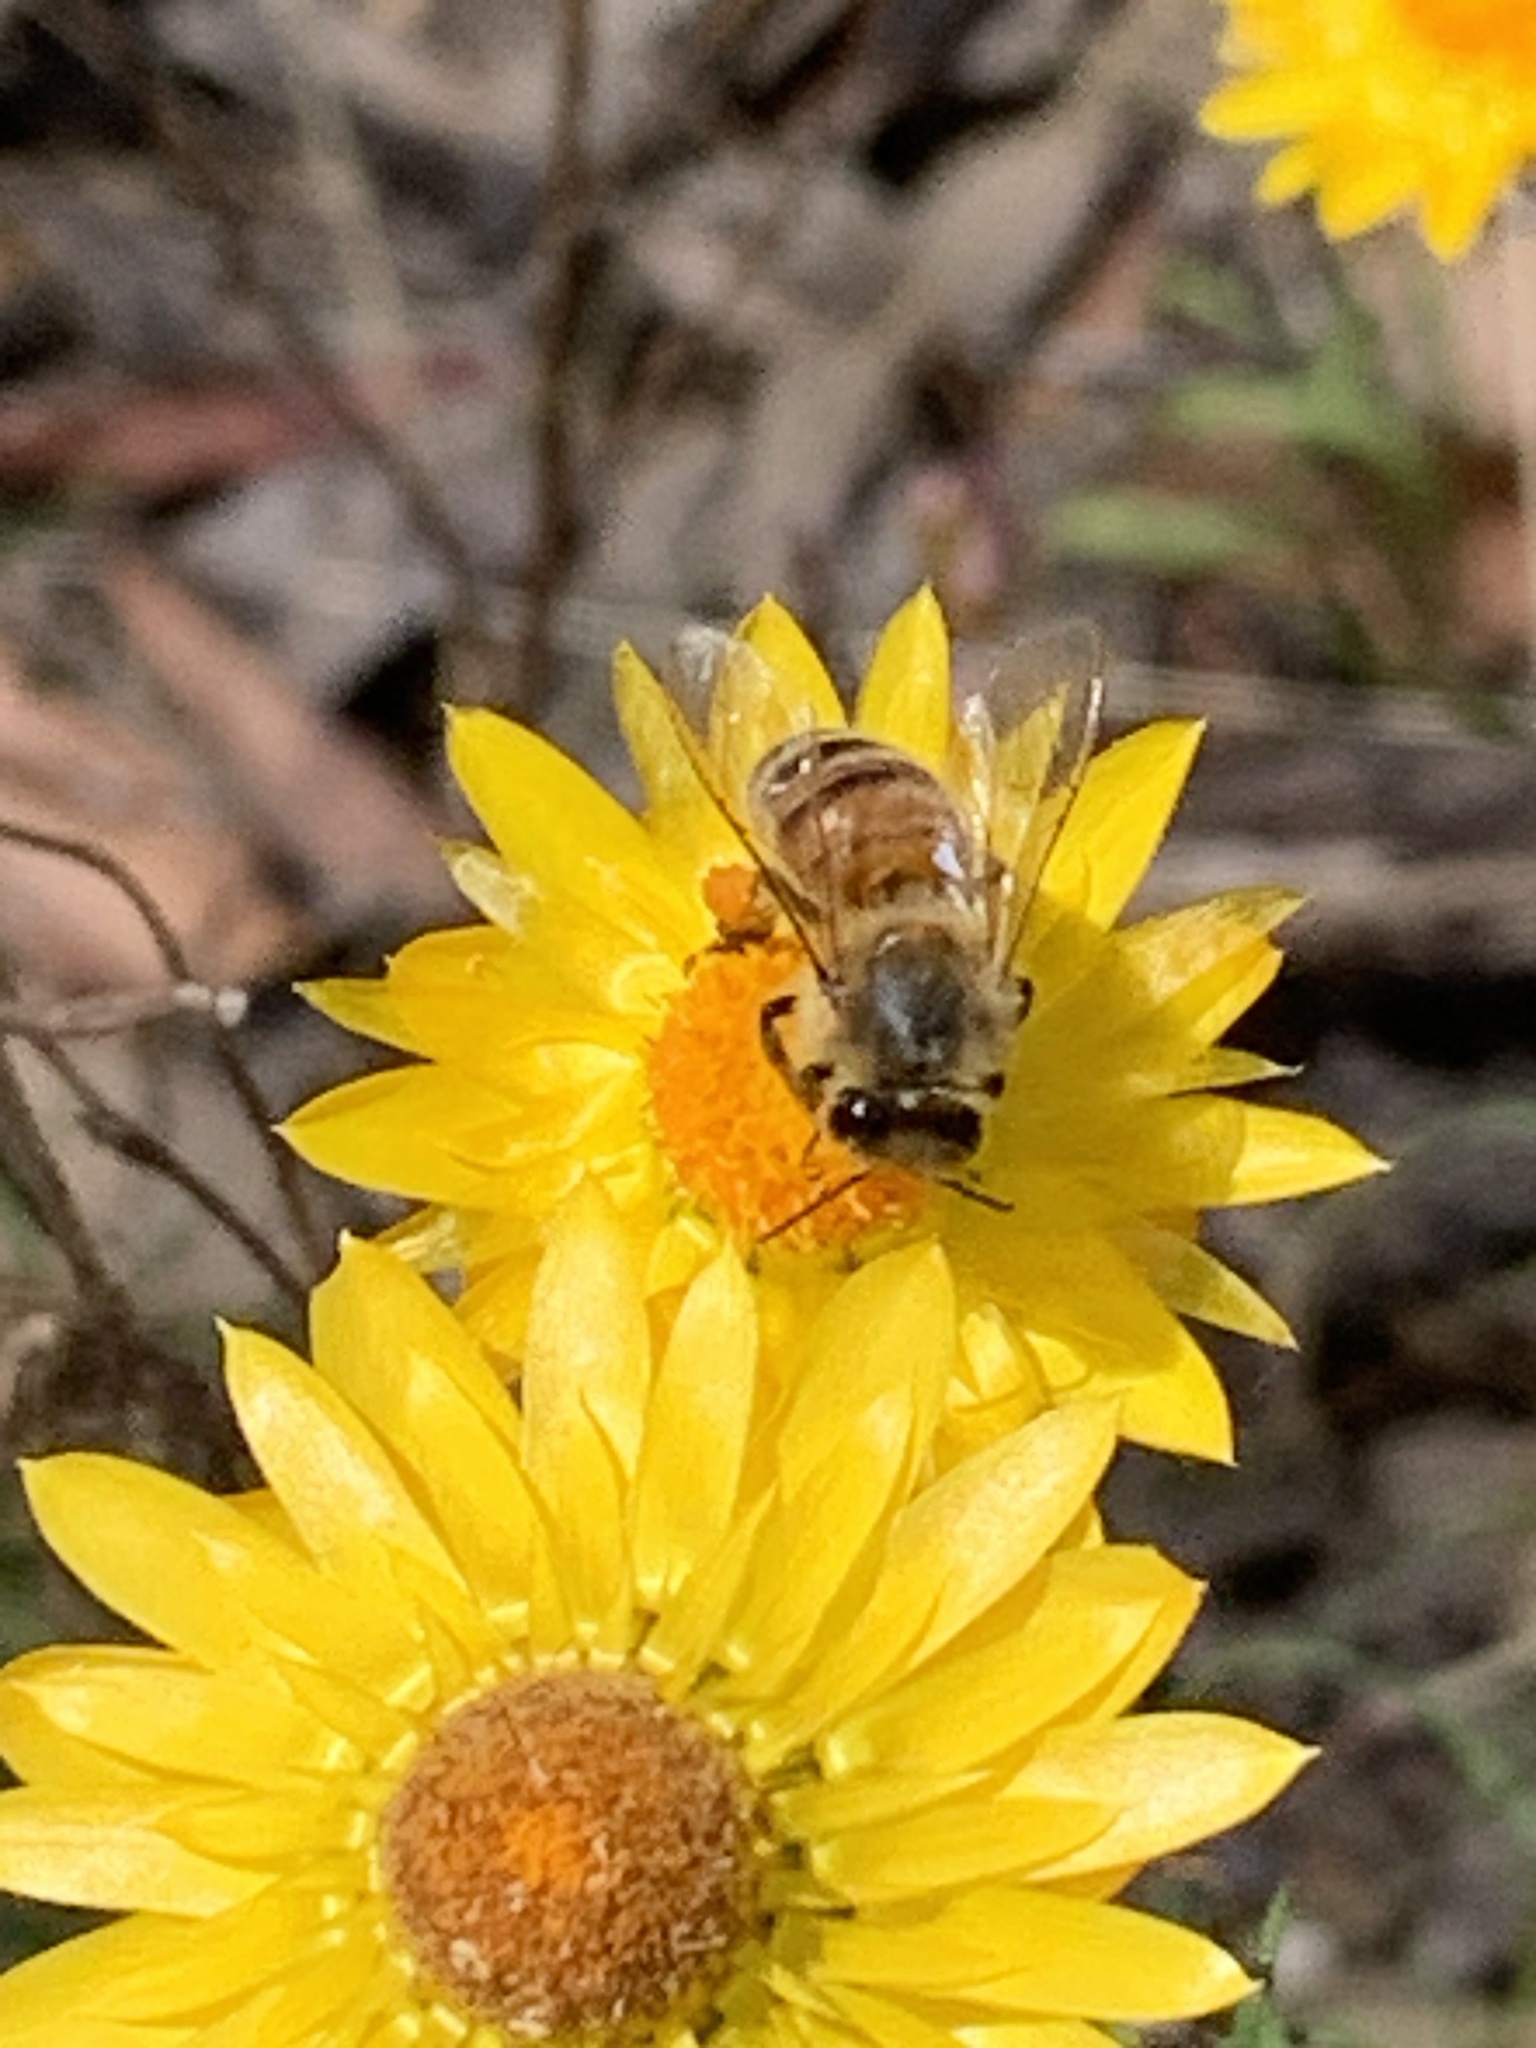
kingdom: Animalia
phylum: Arthropoda
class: Insecta
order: Hymenoptera
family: Apidae
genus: Apis
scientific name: Apis mellifera
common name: Honey bee
